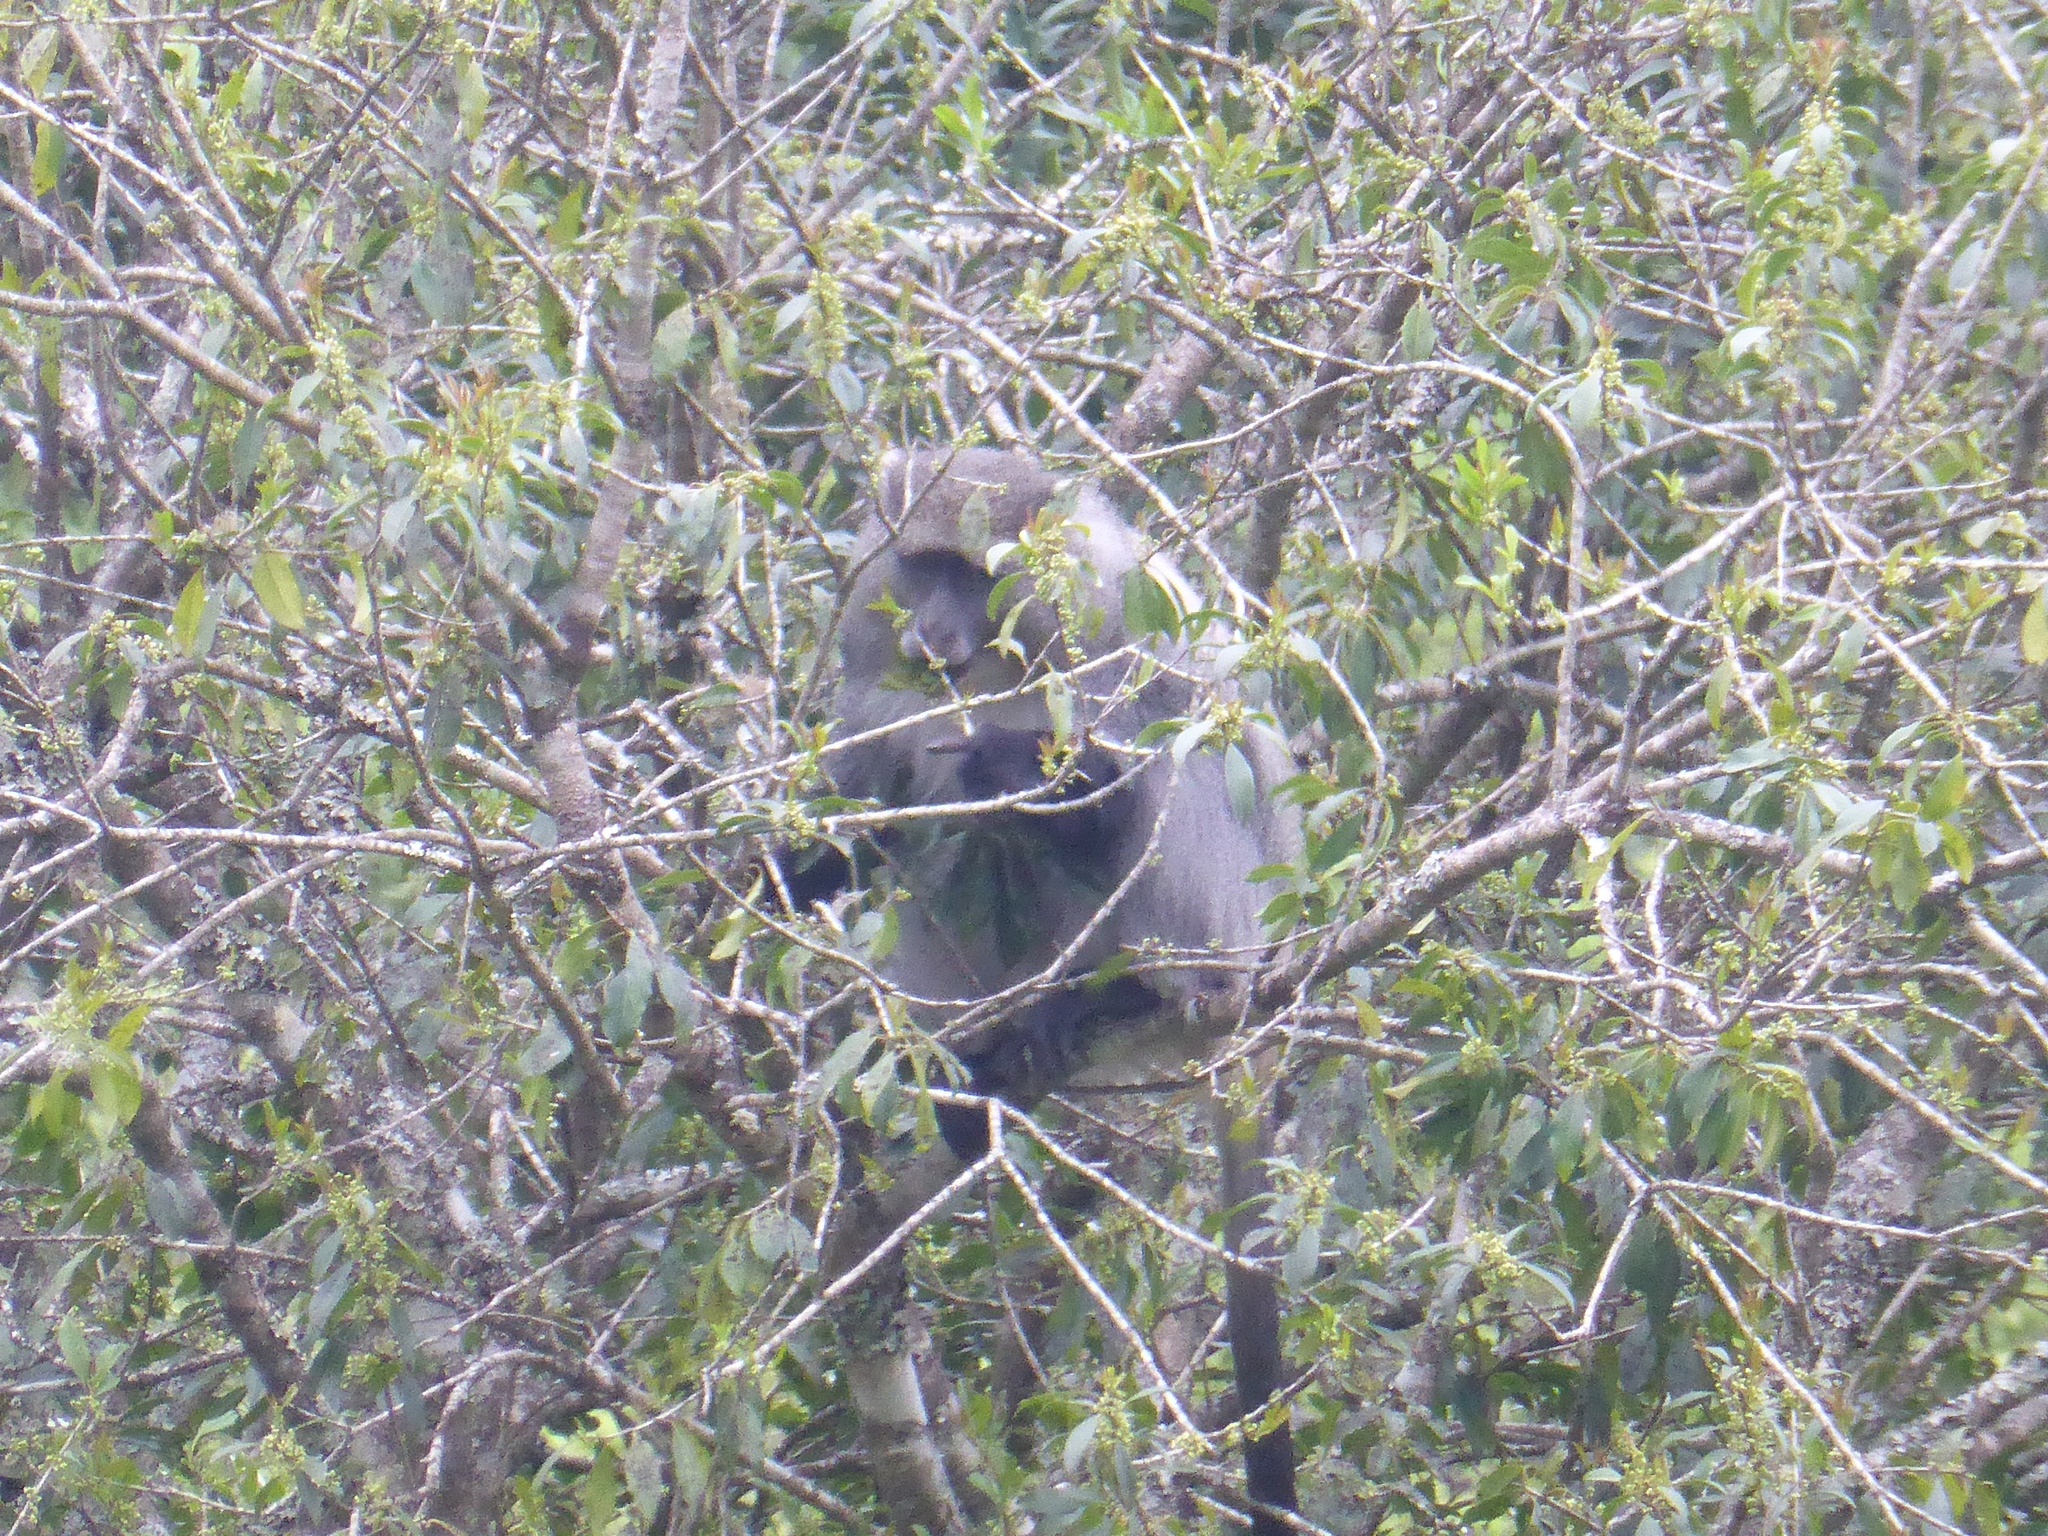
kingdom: Animalia
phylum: Chordata
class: Mammalia
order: Primates
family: Cercopithecidae
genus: Cercopithecus
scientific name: Cercopithecus mitis
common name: Blue monkey
